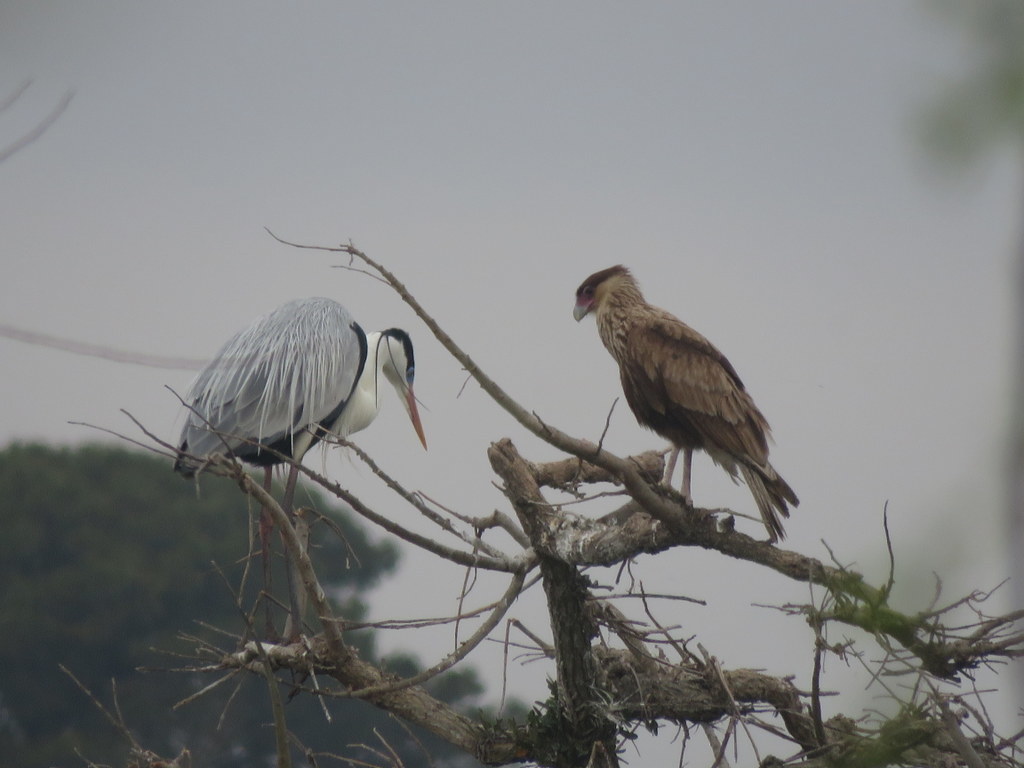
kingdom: Animalia
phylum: Chordata
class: Aves
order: Falconiformes
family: Falconidae
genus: Caracara
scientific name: Caracara plancus
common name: Southern caracara
